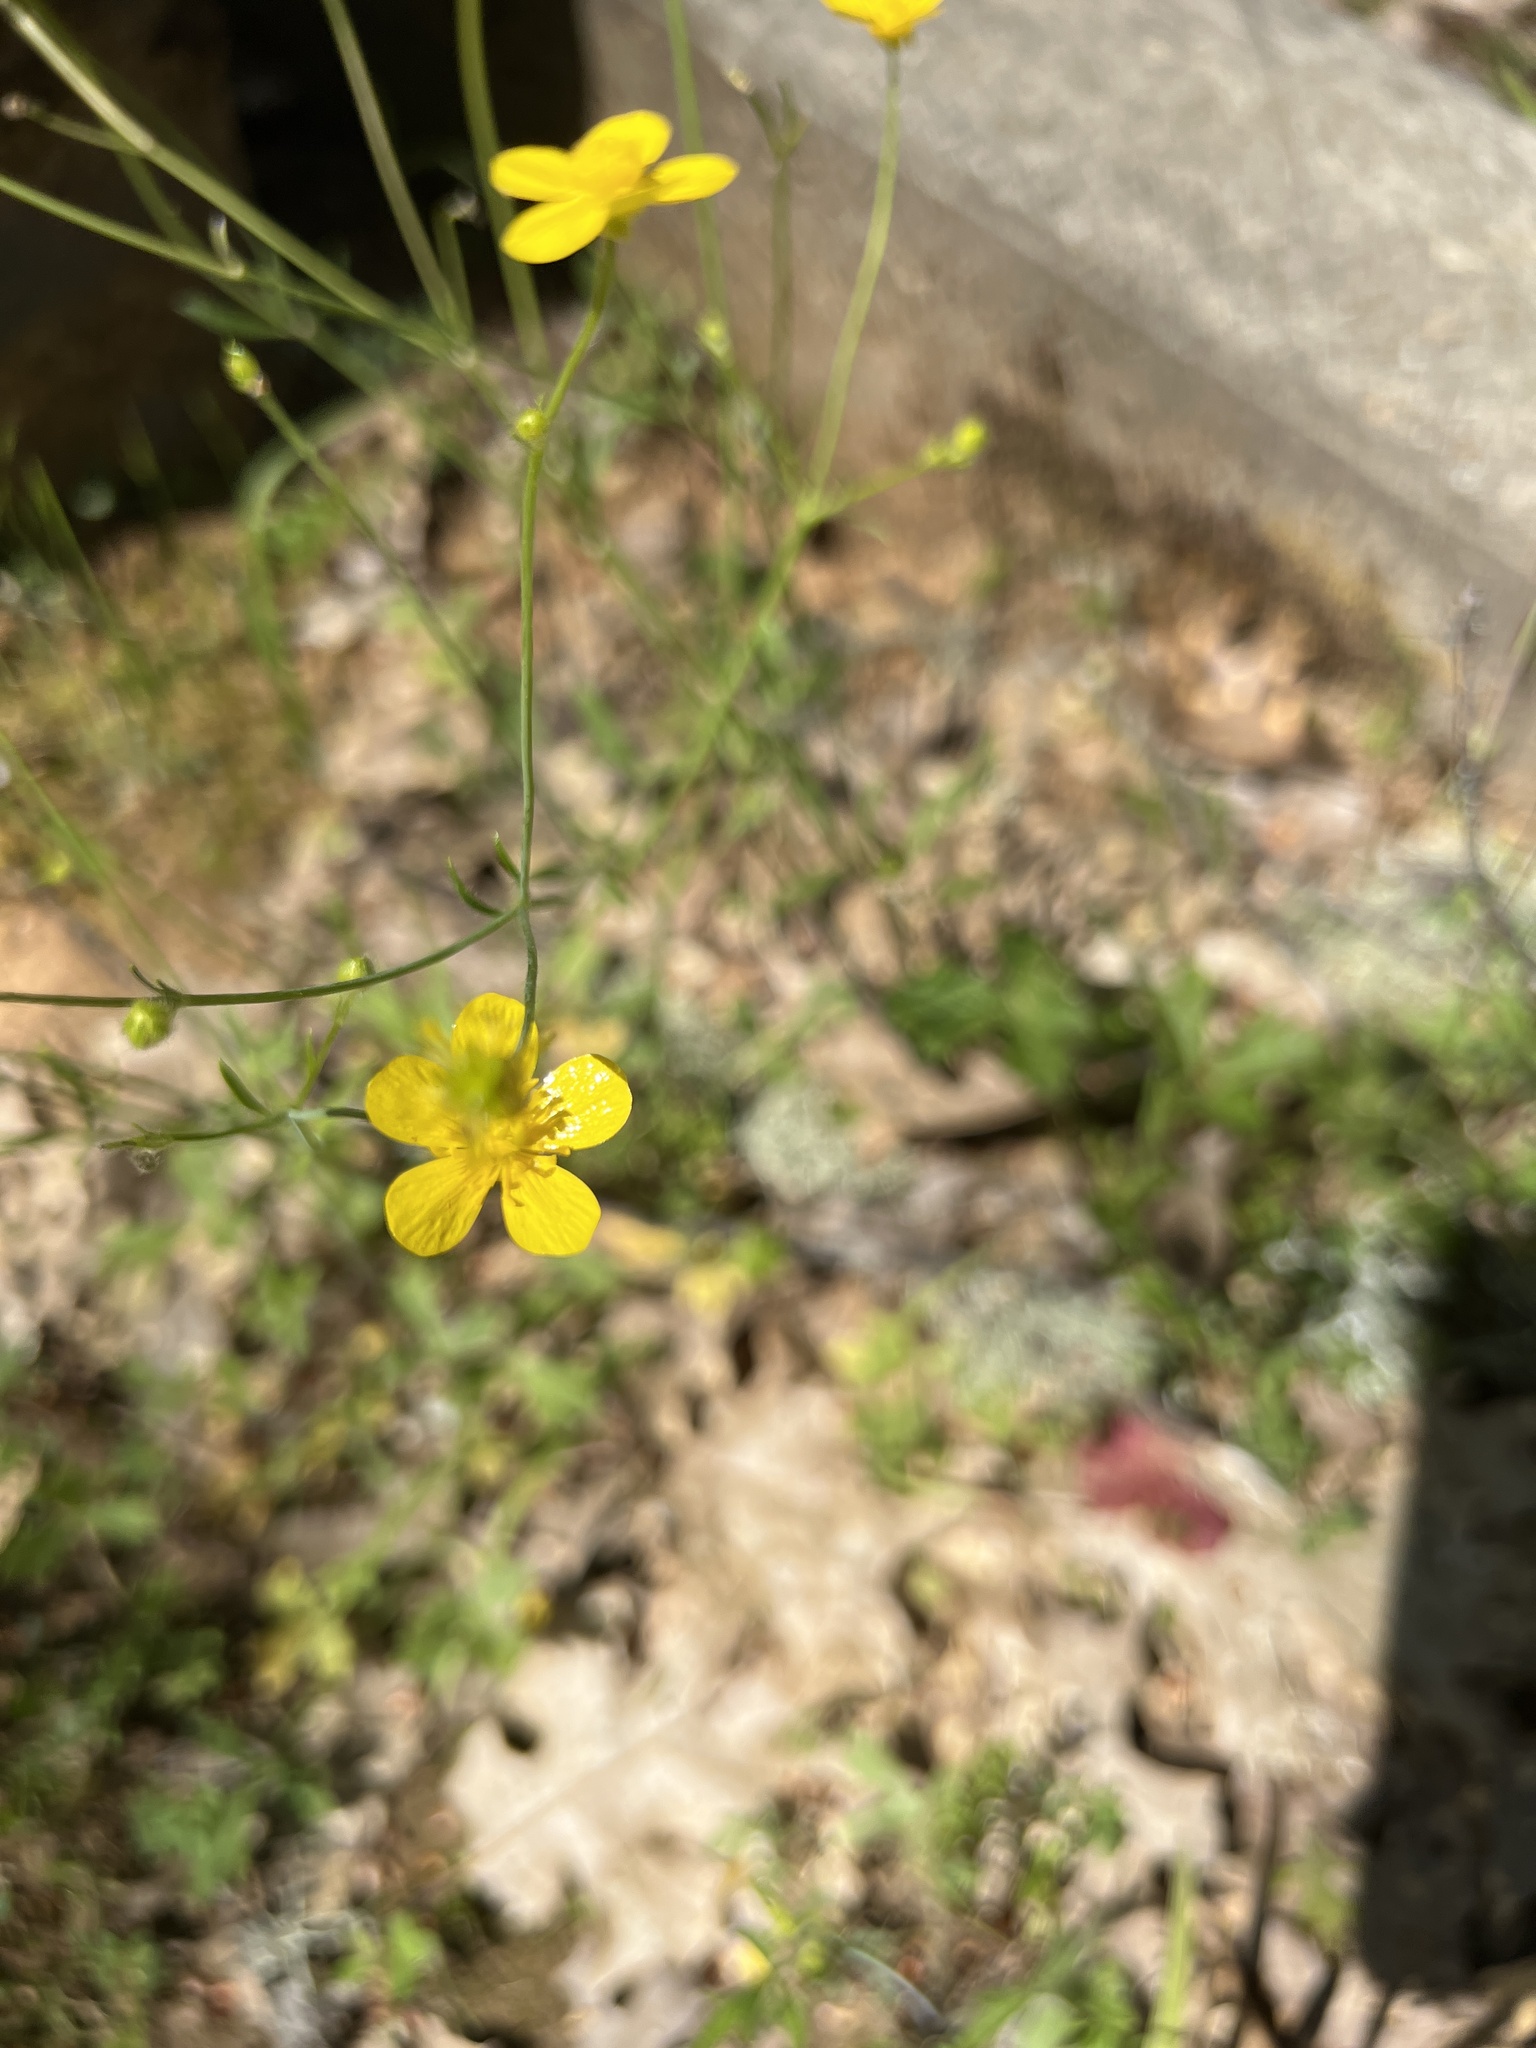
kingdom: Plantae
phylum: Tracheophyta
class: Magnoliopsida
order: Ranunculales
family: Ranunculaceae
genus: Ranunculus
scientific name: Ranunculus occidentalis
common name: Western buttercup
